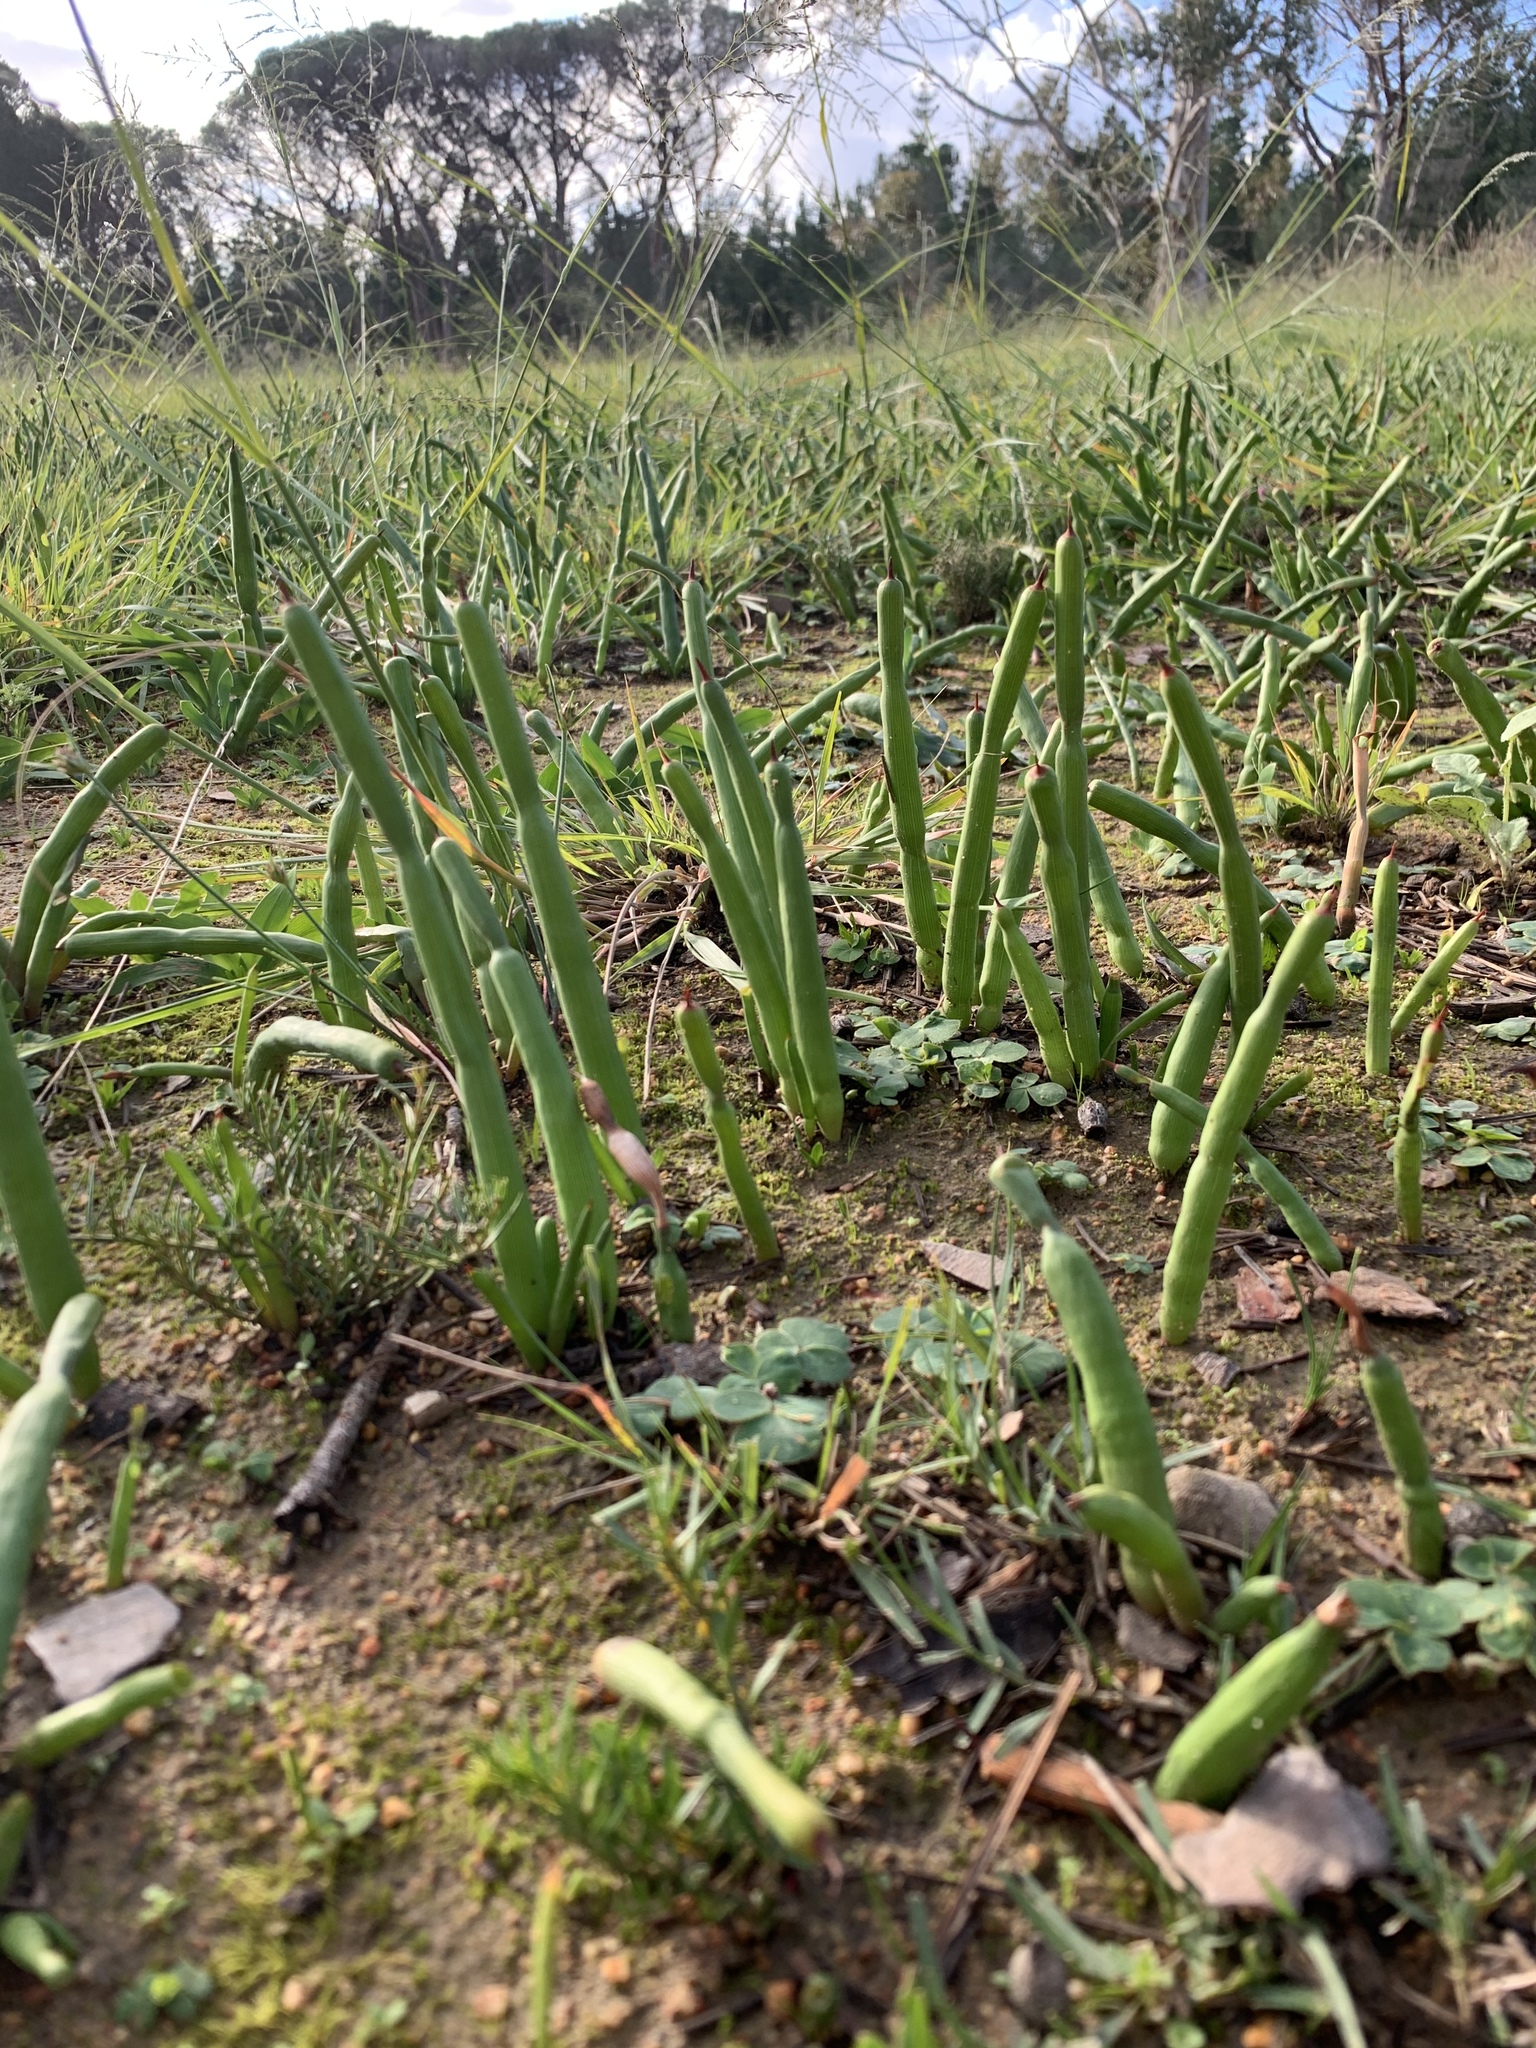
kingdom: Plantae
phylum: Tracheophyta
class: Liliopsida
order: Asparagales
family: Iridaceae
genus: Micranthus
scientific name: Micranthus tubulosus
